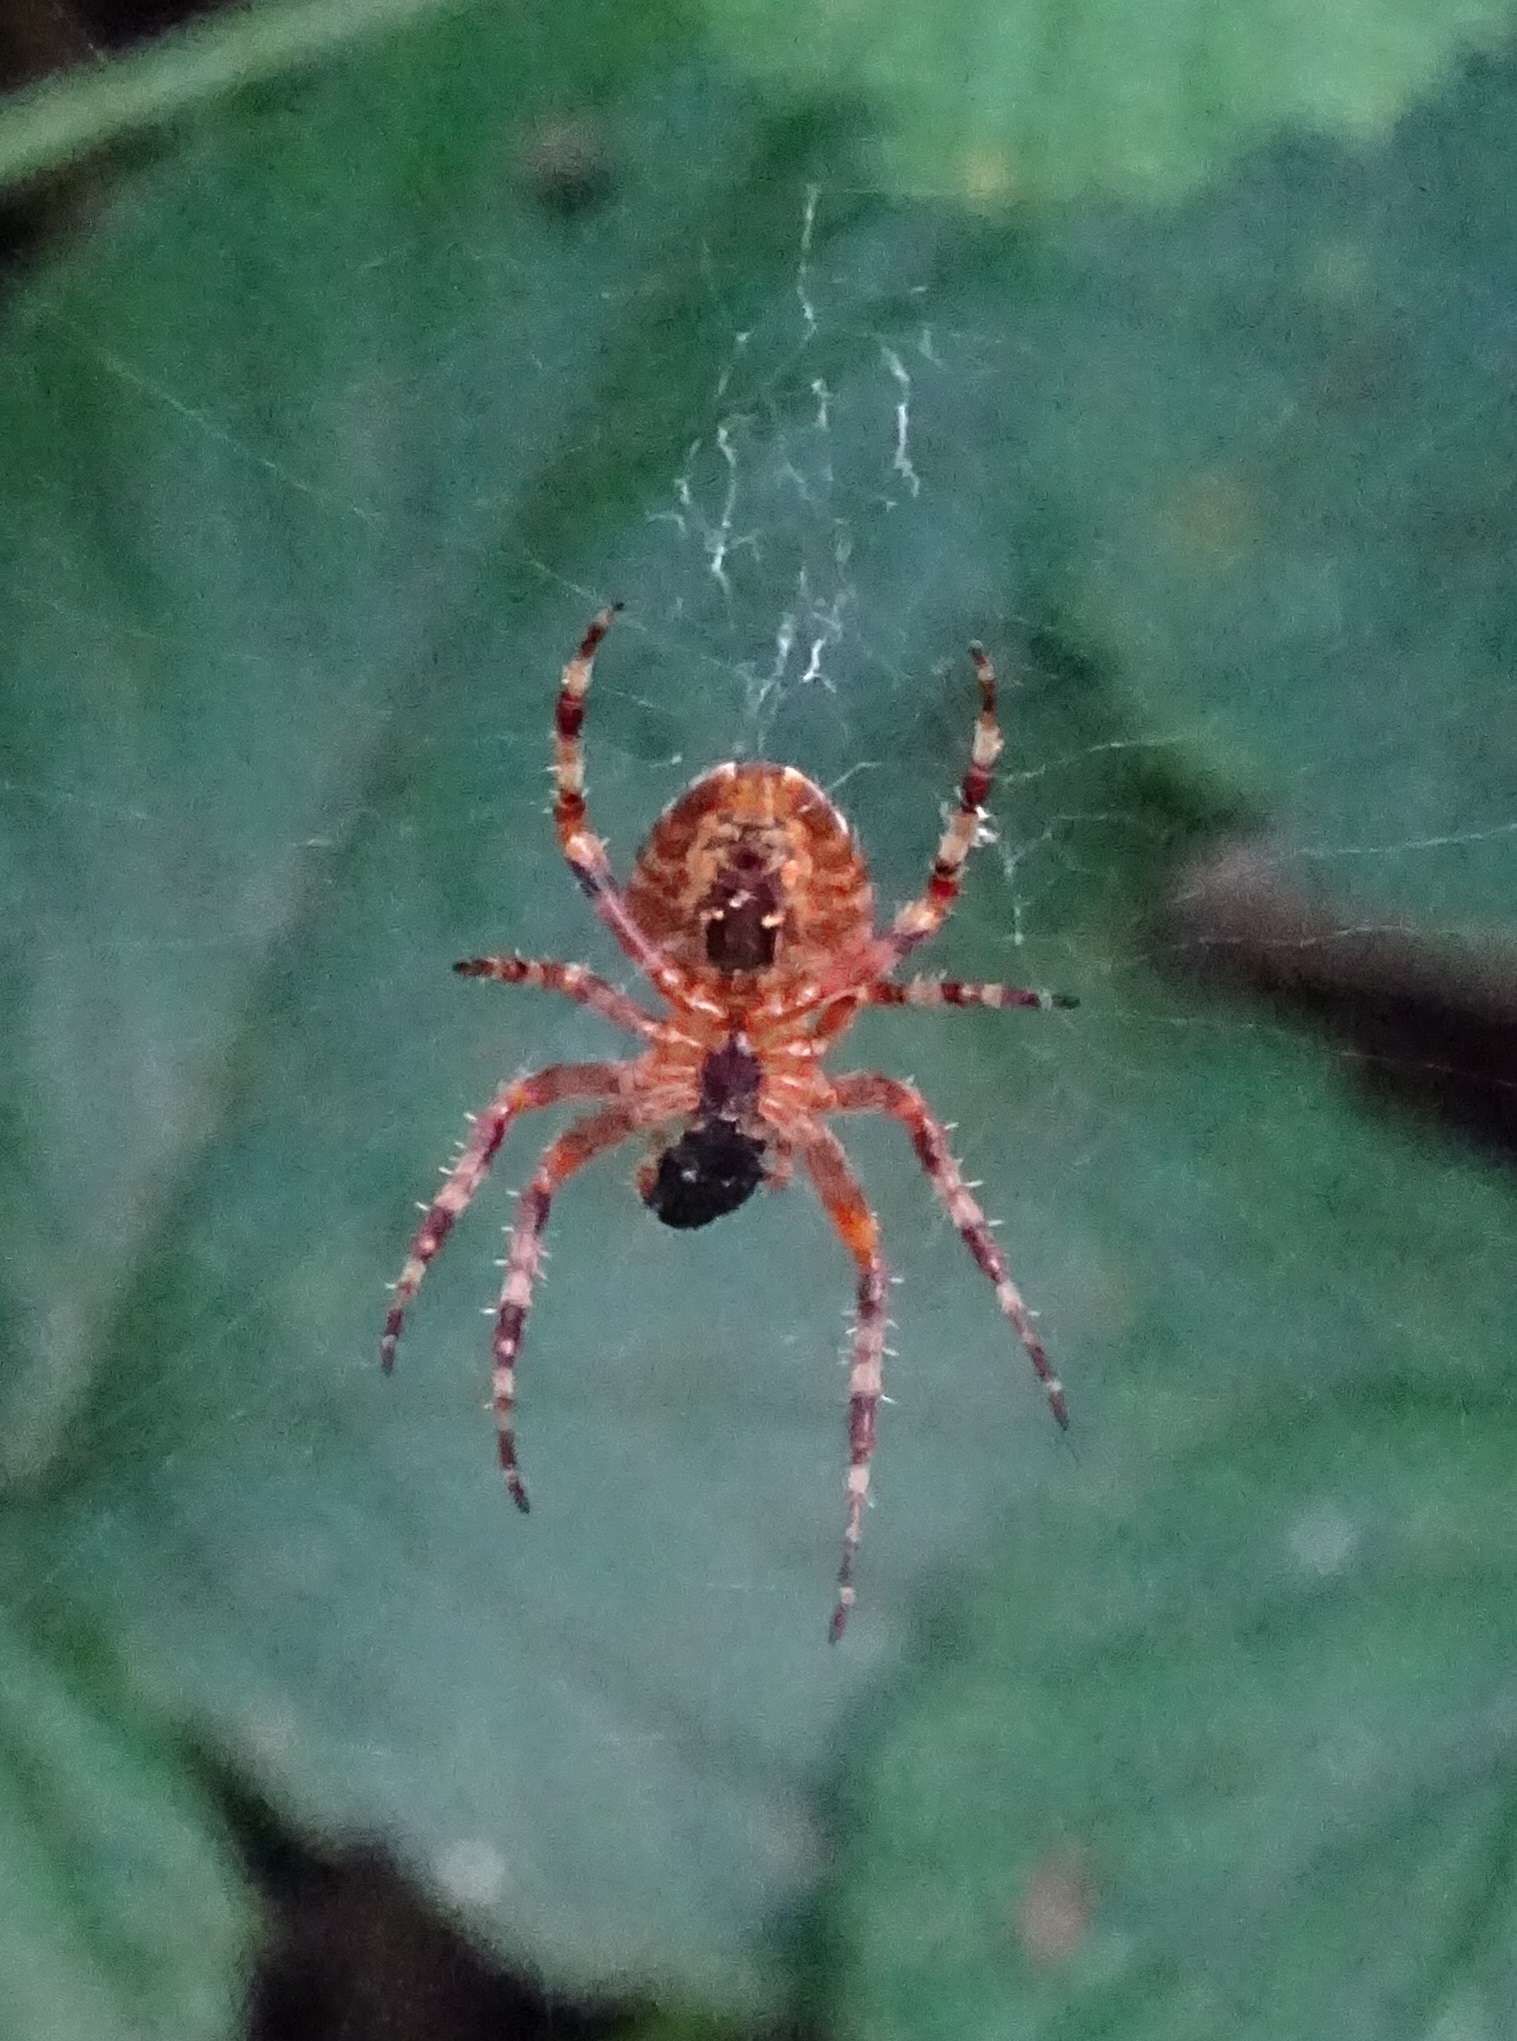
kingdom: Animalia
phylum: Arthropoda
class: Arachnida
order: Araneae
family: Araneidae
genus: Araneus
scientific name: Araneus diadematus
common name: Cross orbweaver
